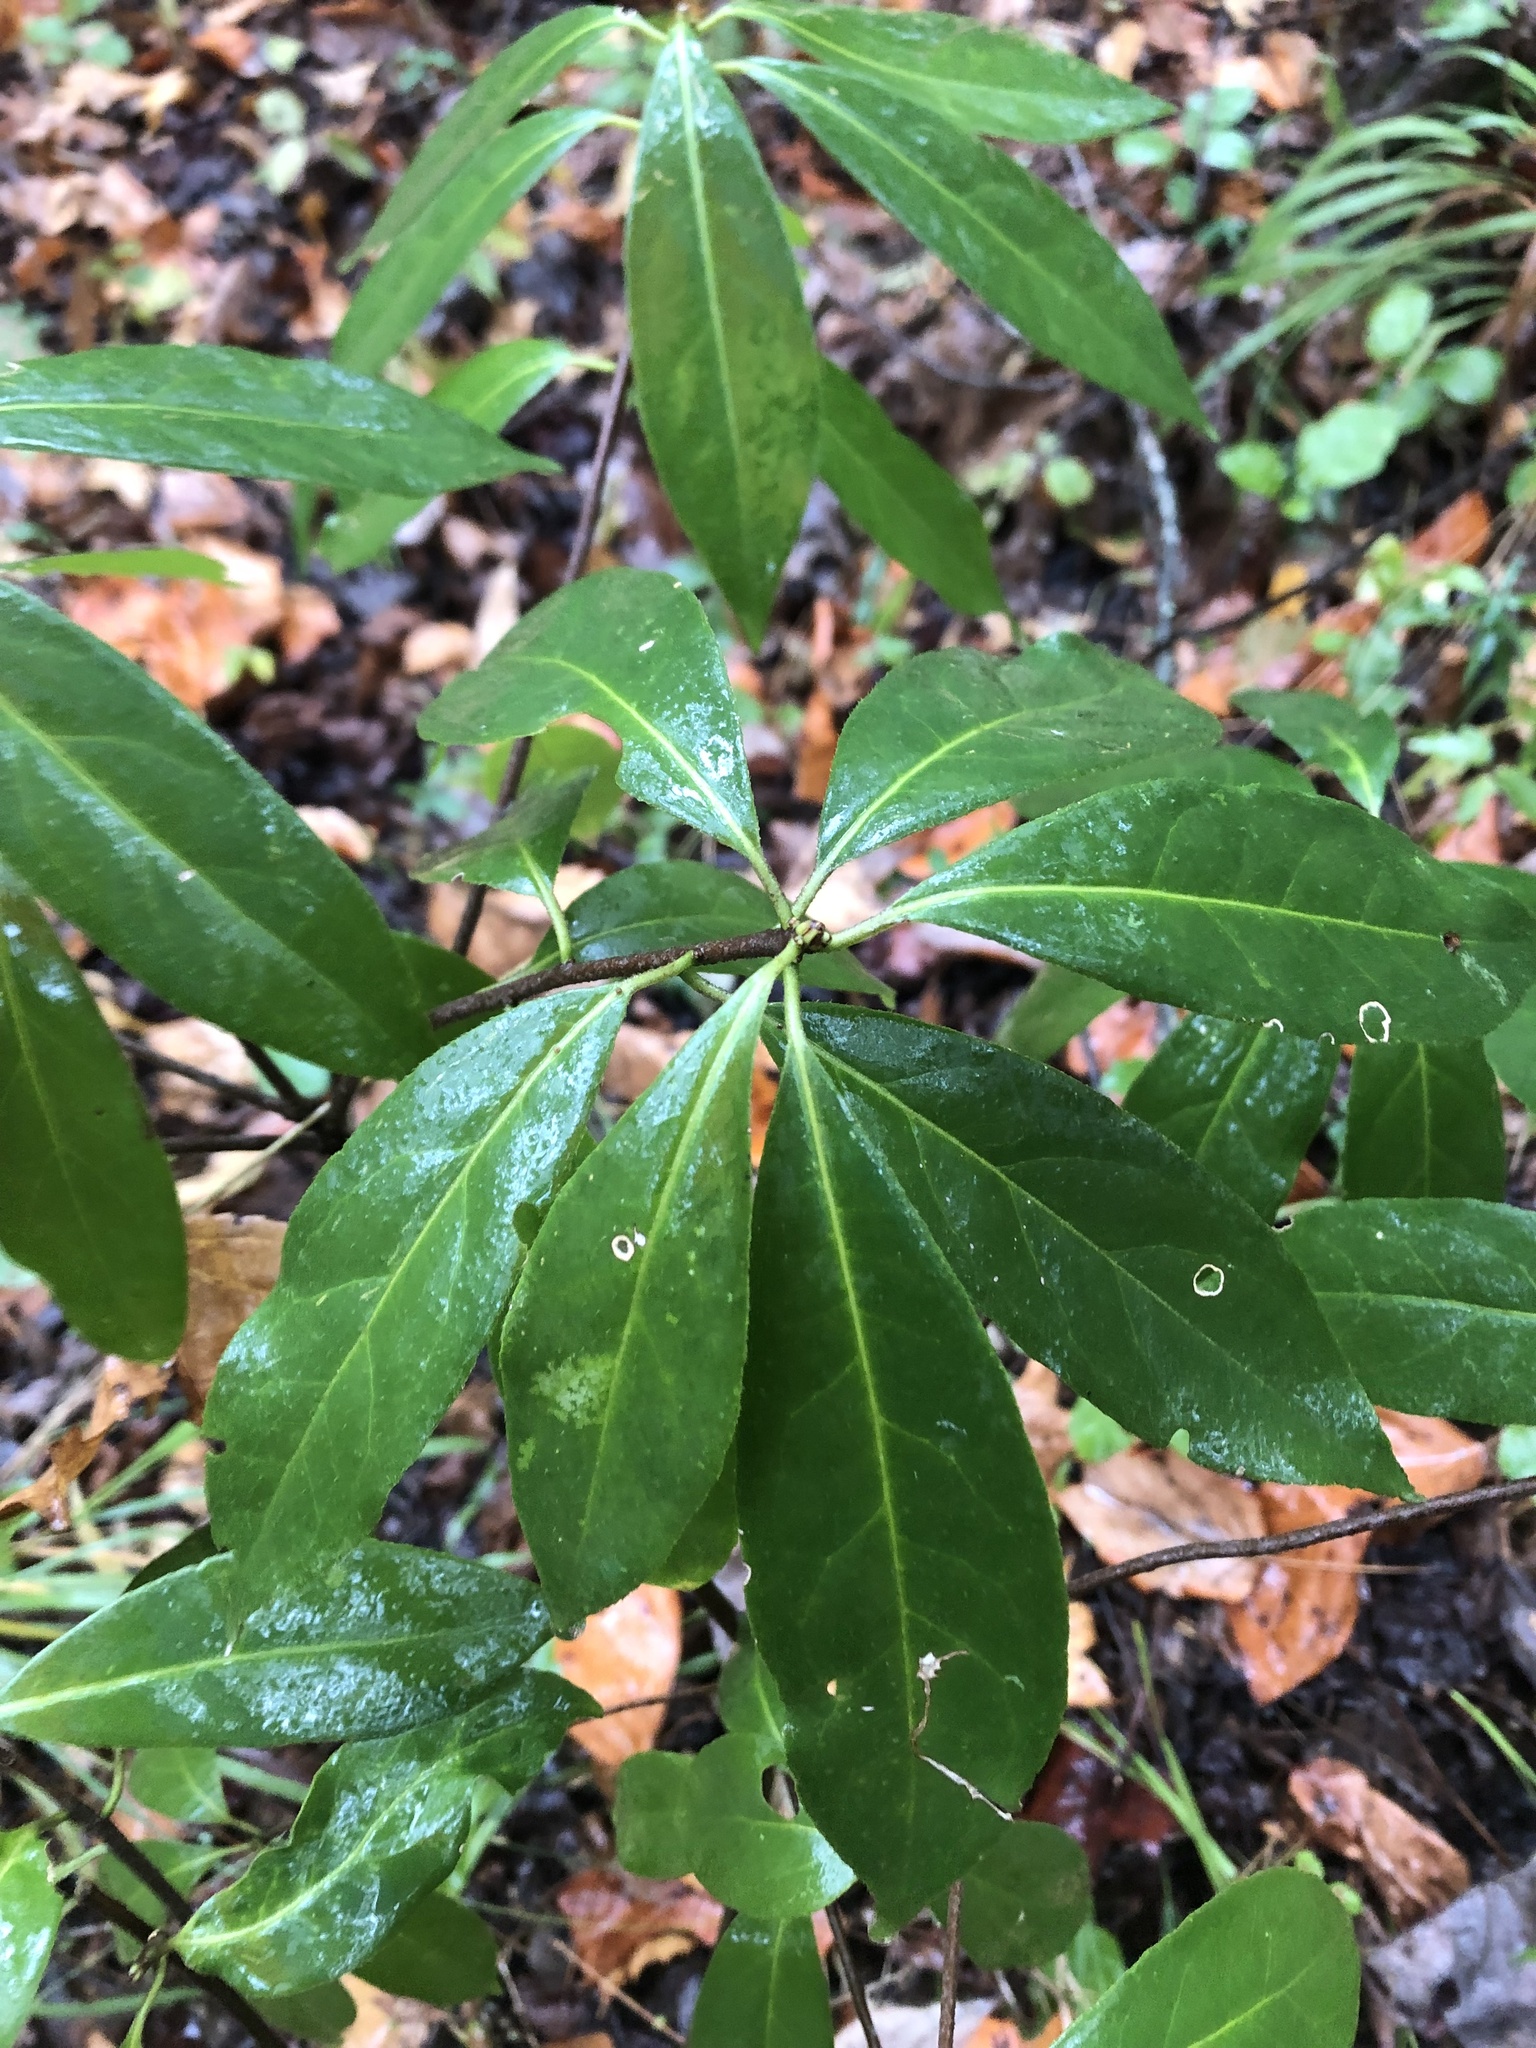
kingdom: Plantae
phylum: Tracheophyta
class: Magnoliopsida
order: Ericales
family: Symplocaceae
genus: Symplocos
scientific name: Symplocos tinctoria
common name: Horse-sugar
